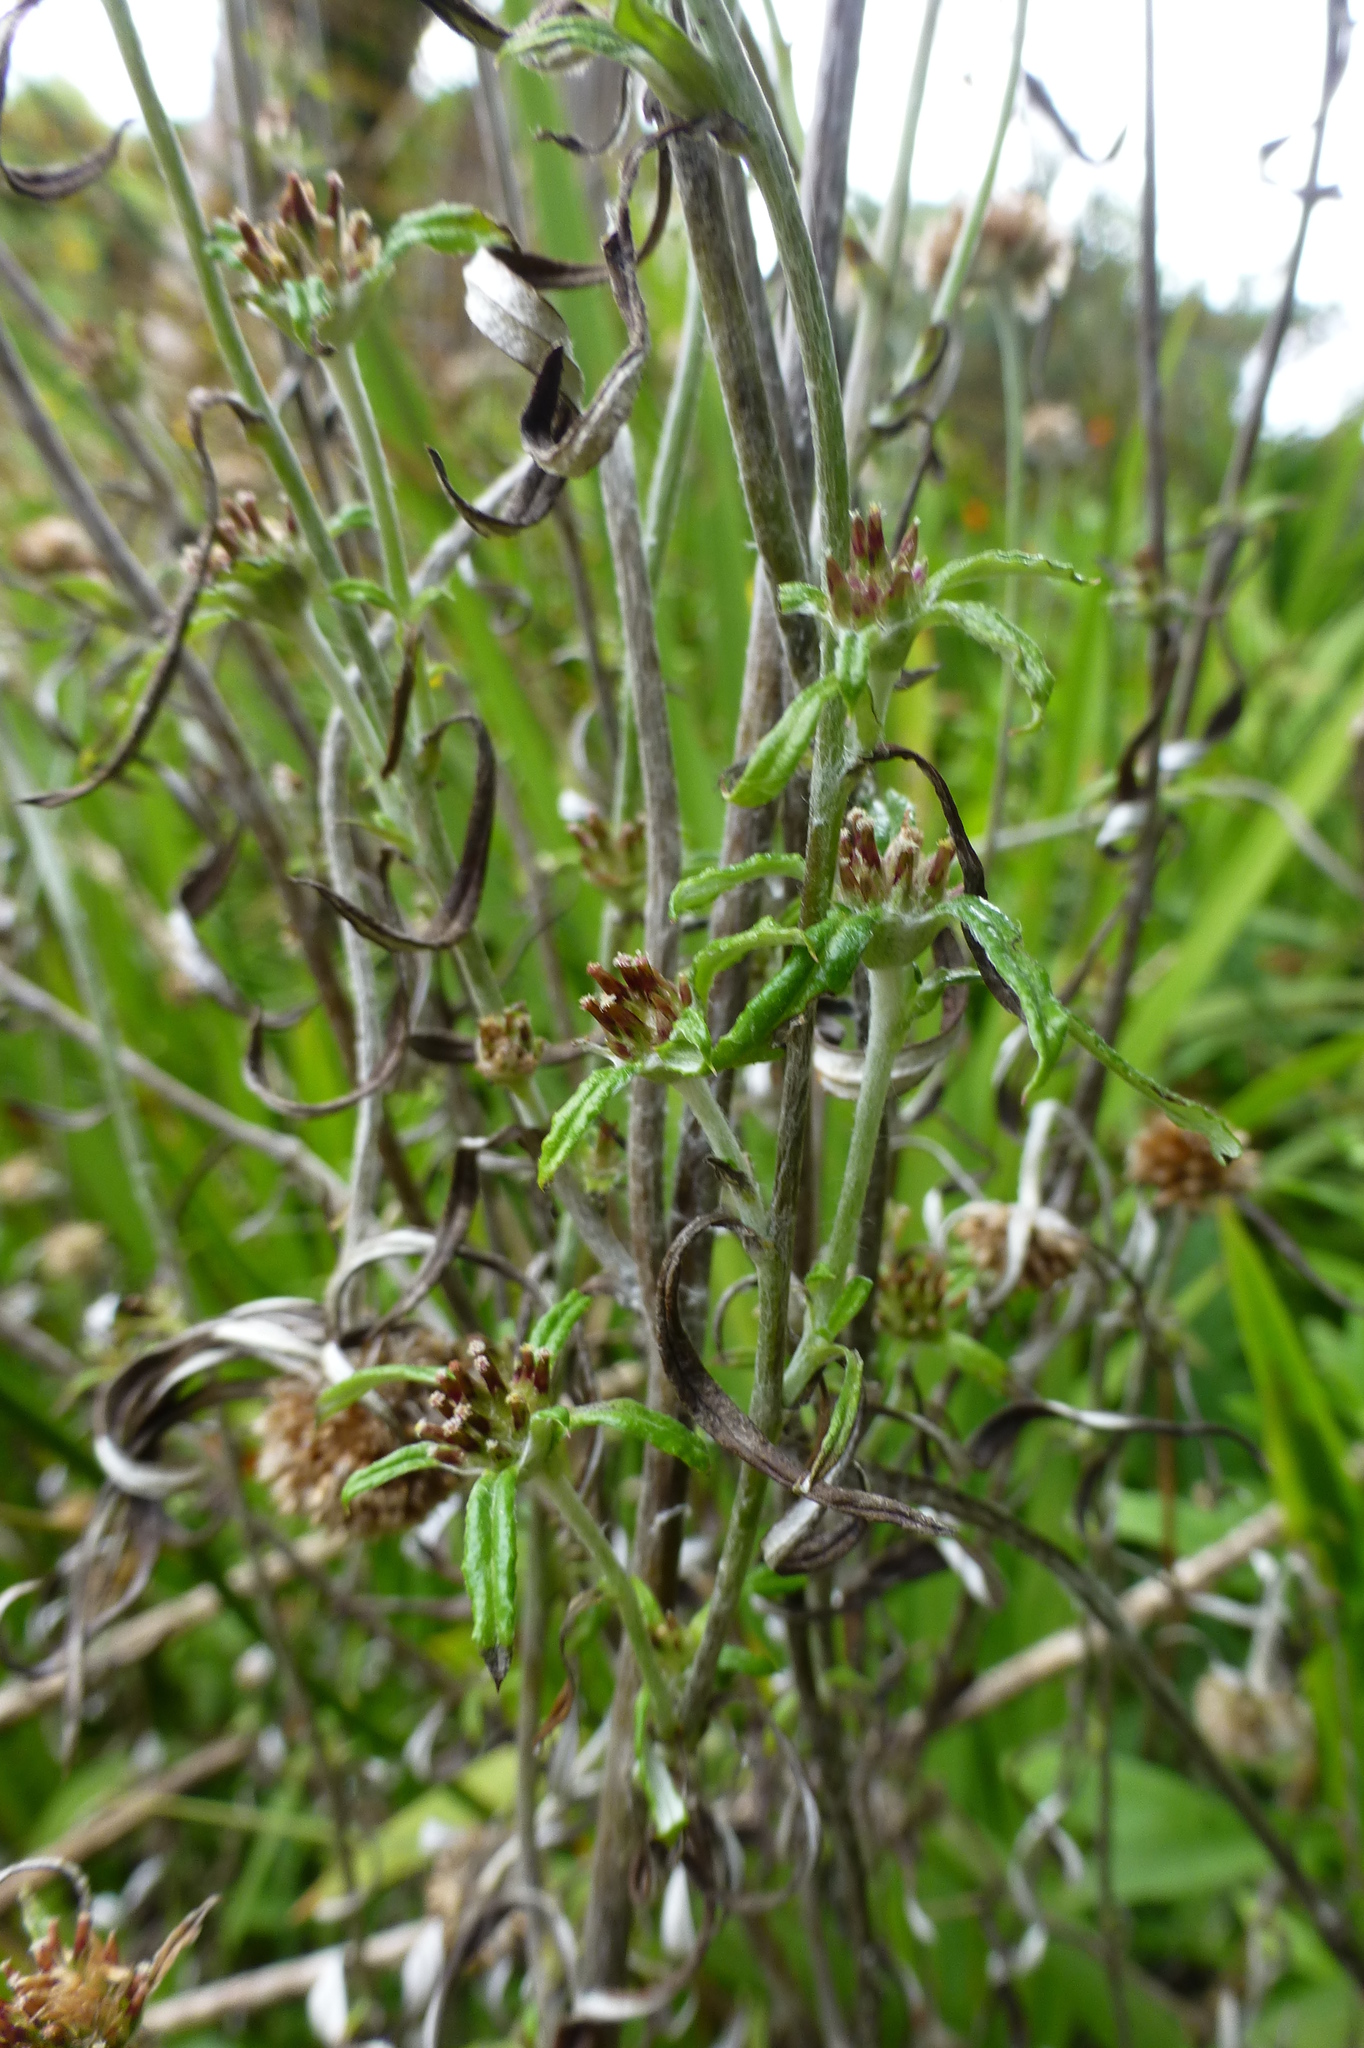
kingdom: Plantae
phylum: Tracheophyta
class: Magnoliopsida
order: Asterales
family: Asteraceae
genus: Euchiton
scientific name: Euchiton sphaericus
